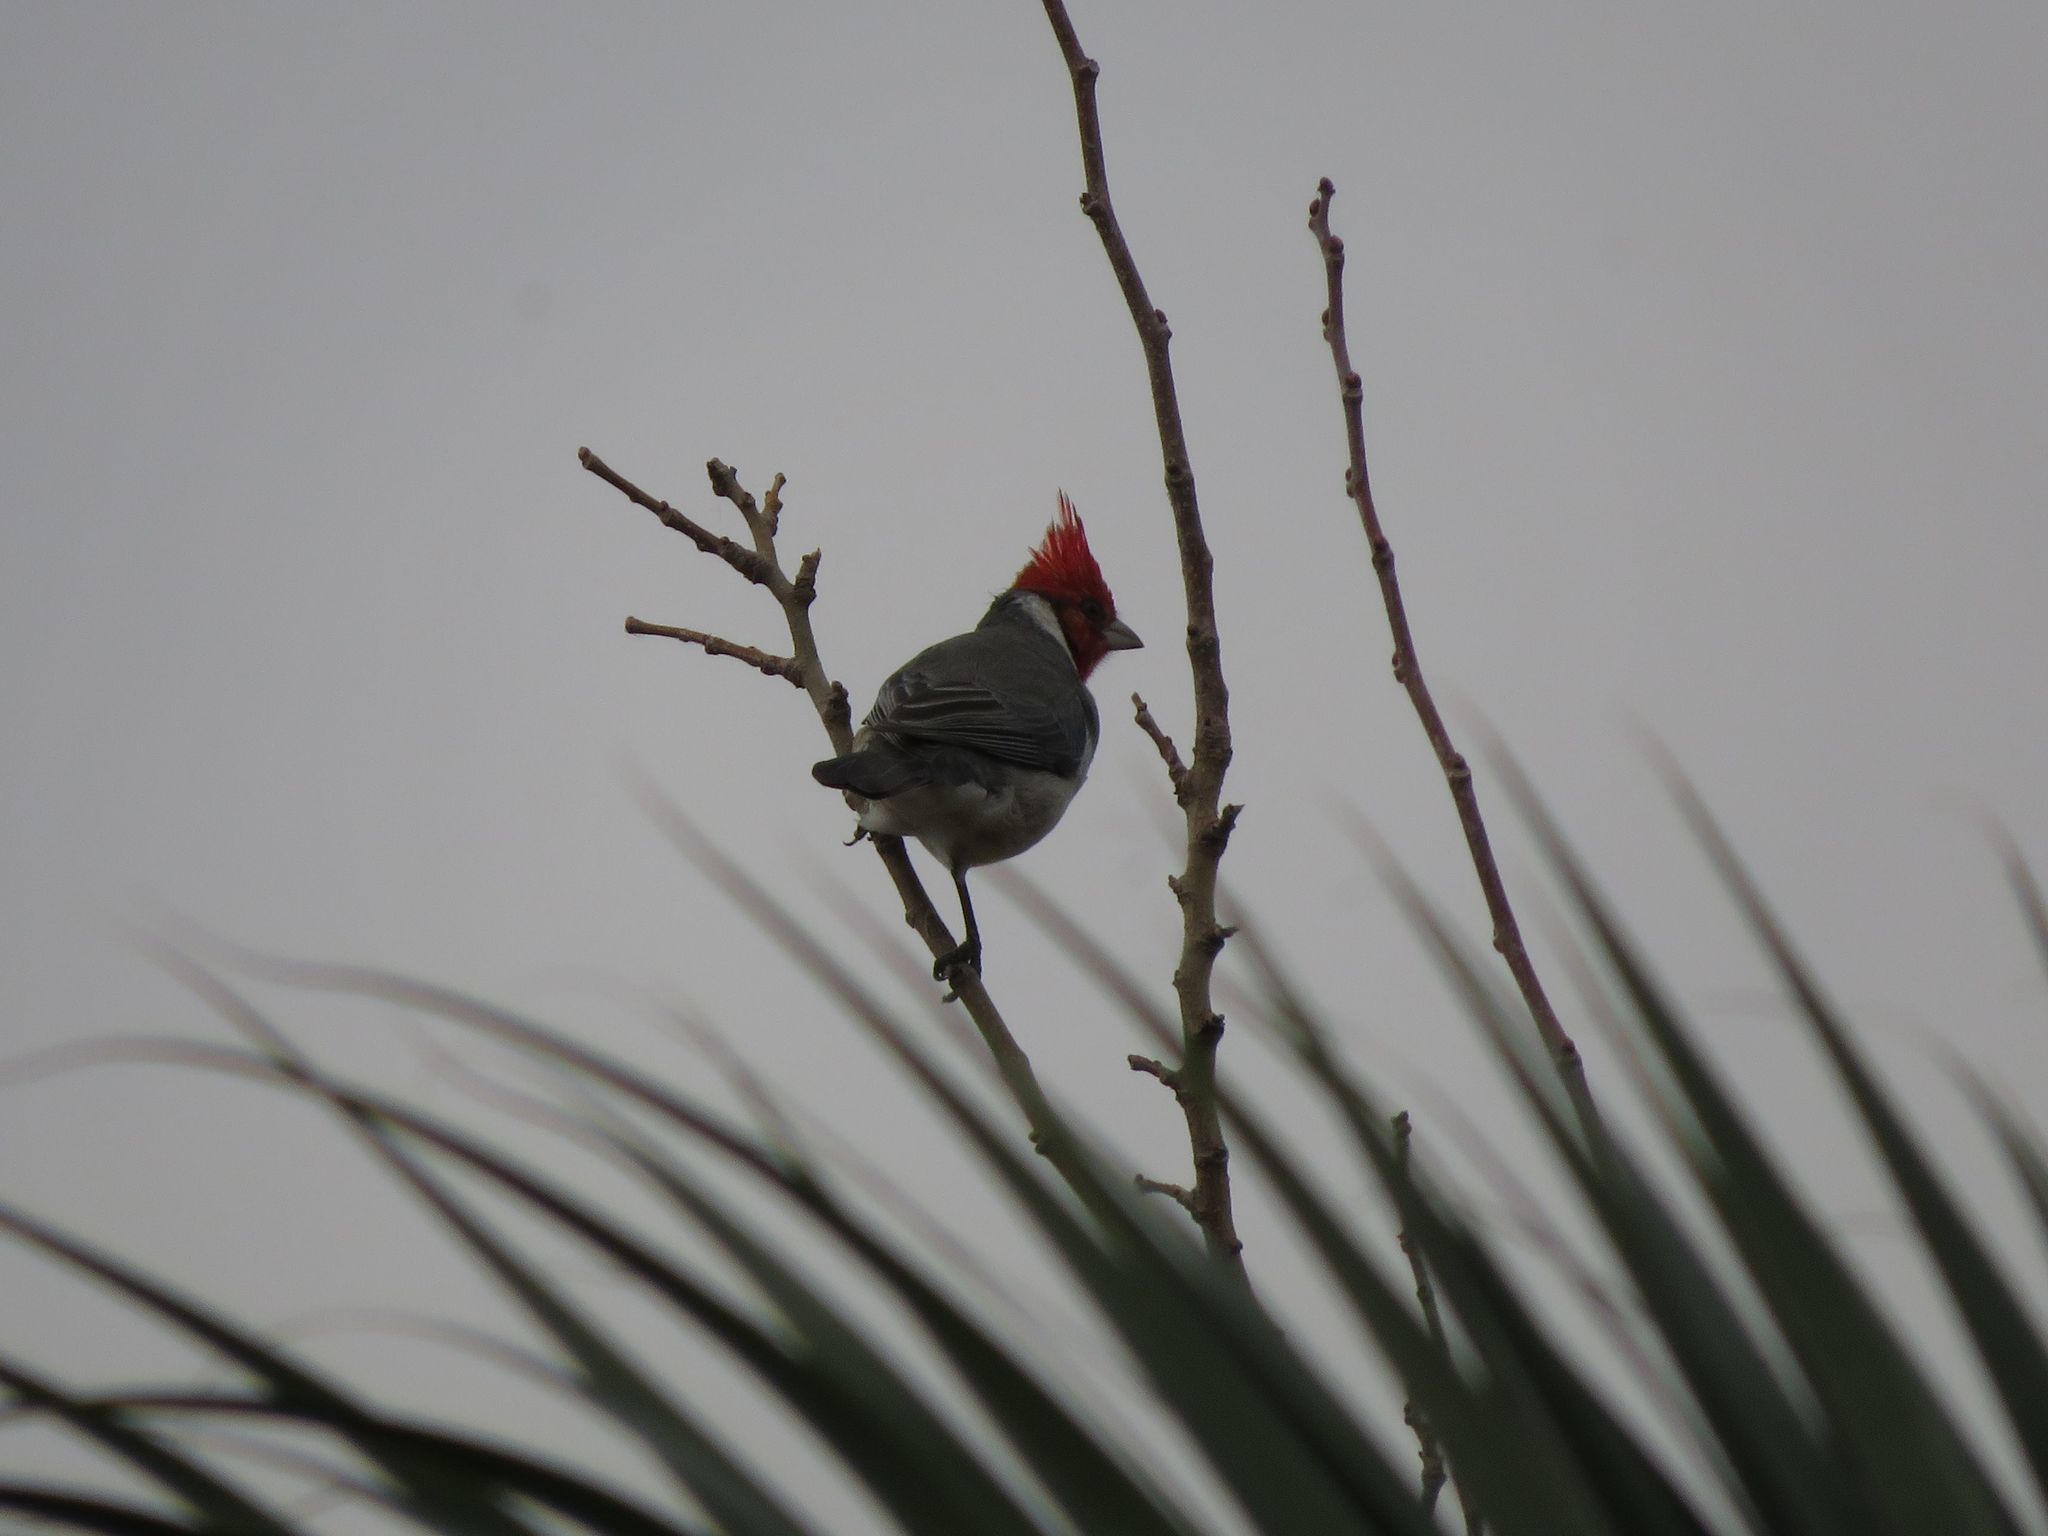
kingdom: Animalia
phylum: Chordata
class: Aves
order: Passeriformes
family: Thraupidae
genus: Paroaria
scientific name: Paroaria coronata
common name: Red-crested cardinal
